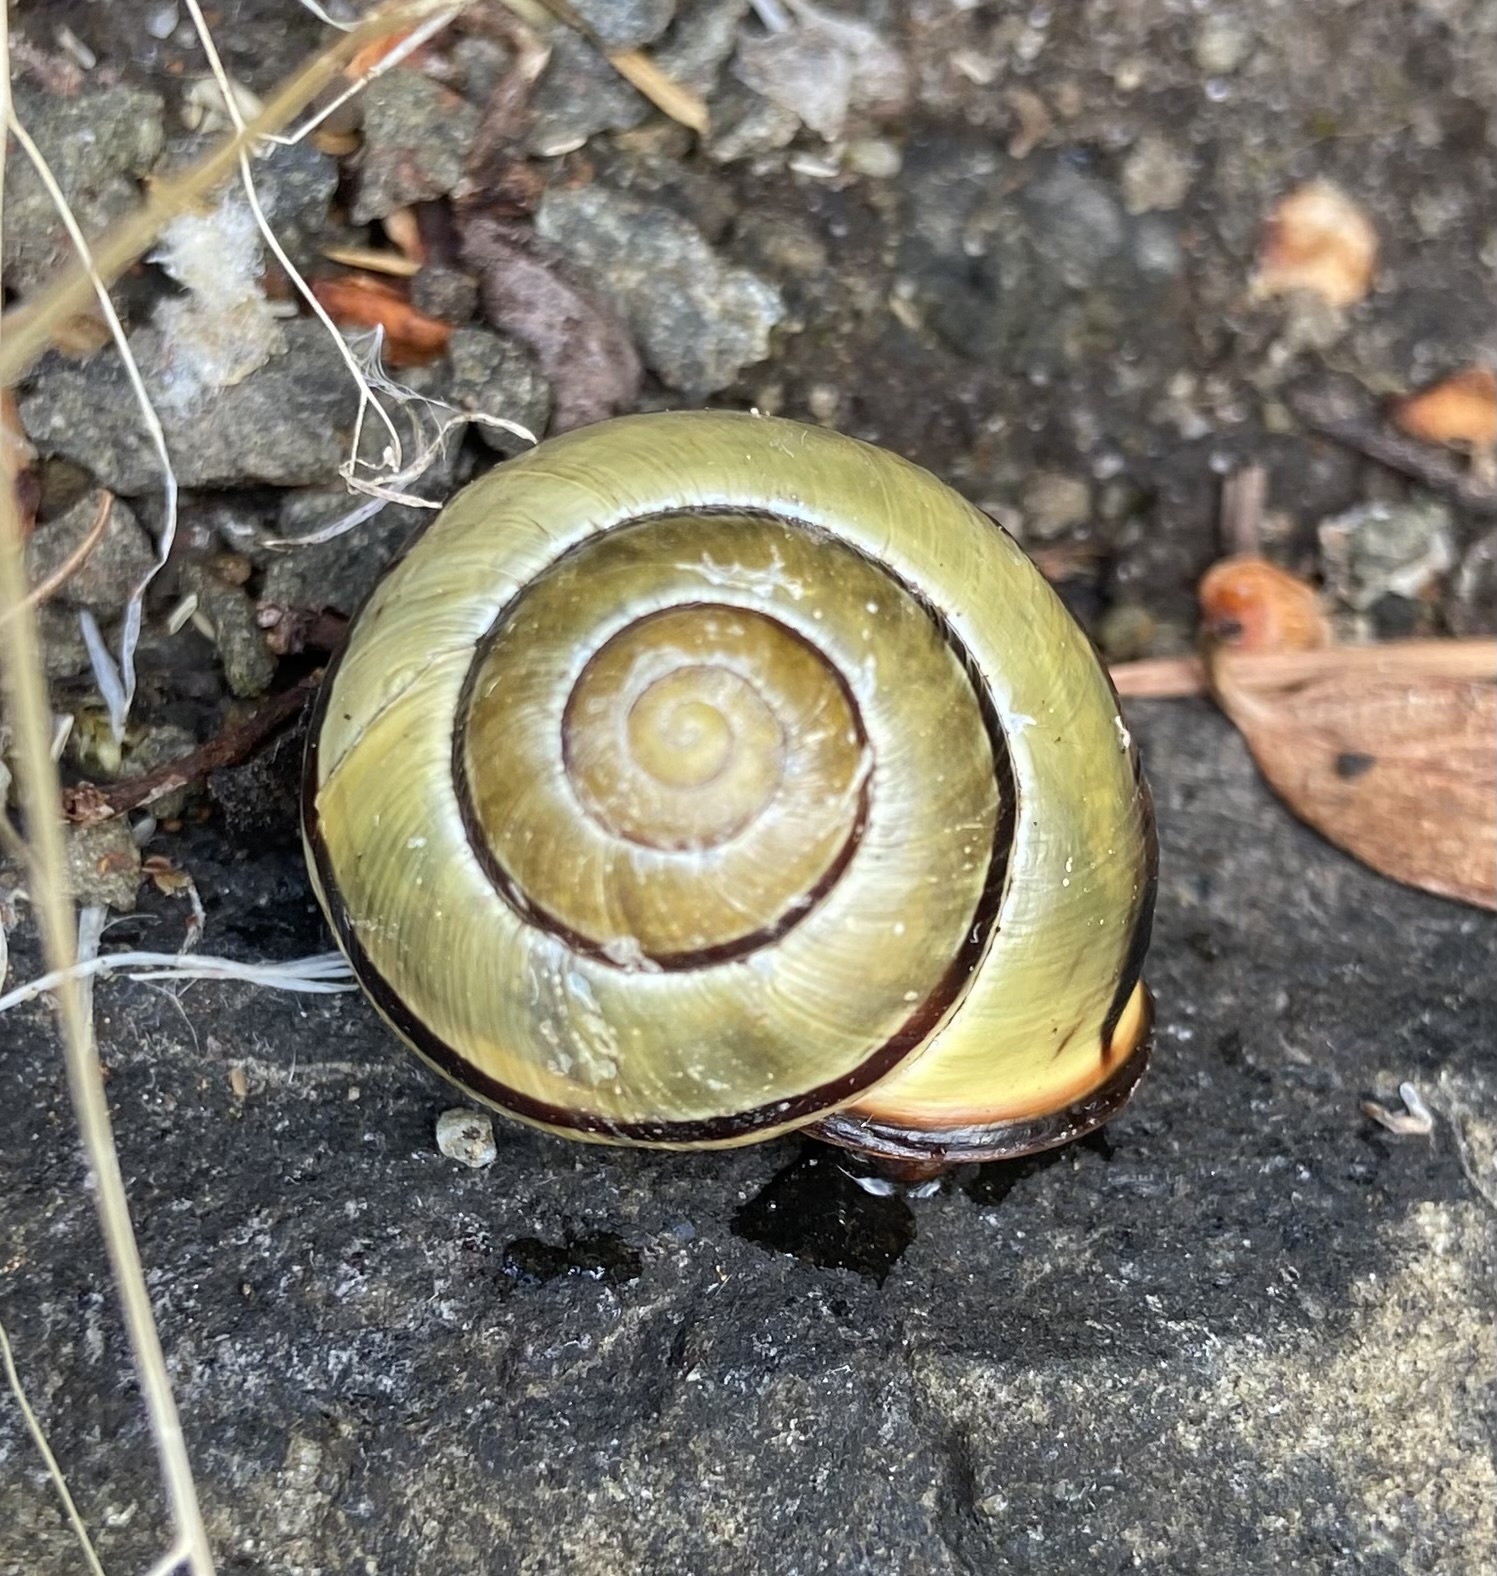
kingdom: Animalia
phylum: Mollusca
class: Gastropoda
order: Stylommatophora
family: Helicidae
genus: Cepaea
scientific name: Cepaea nemoralis
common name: Grovesnail
